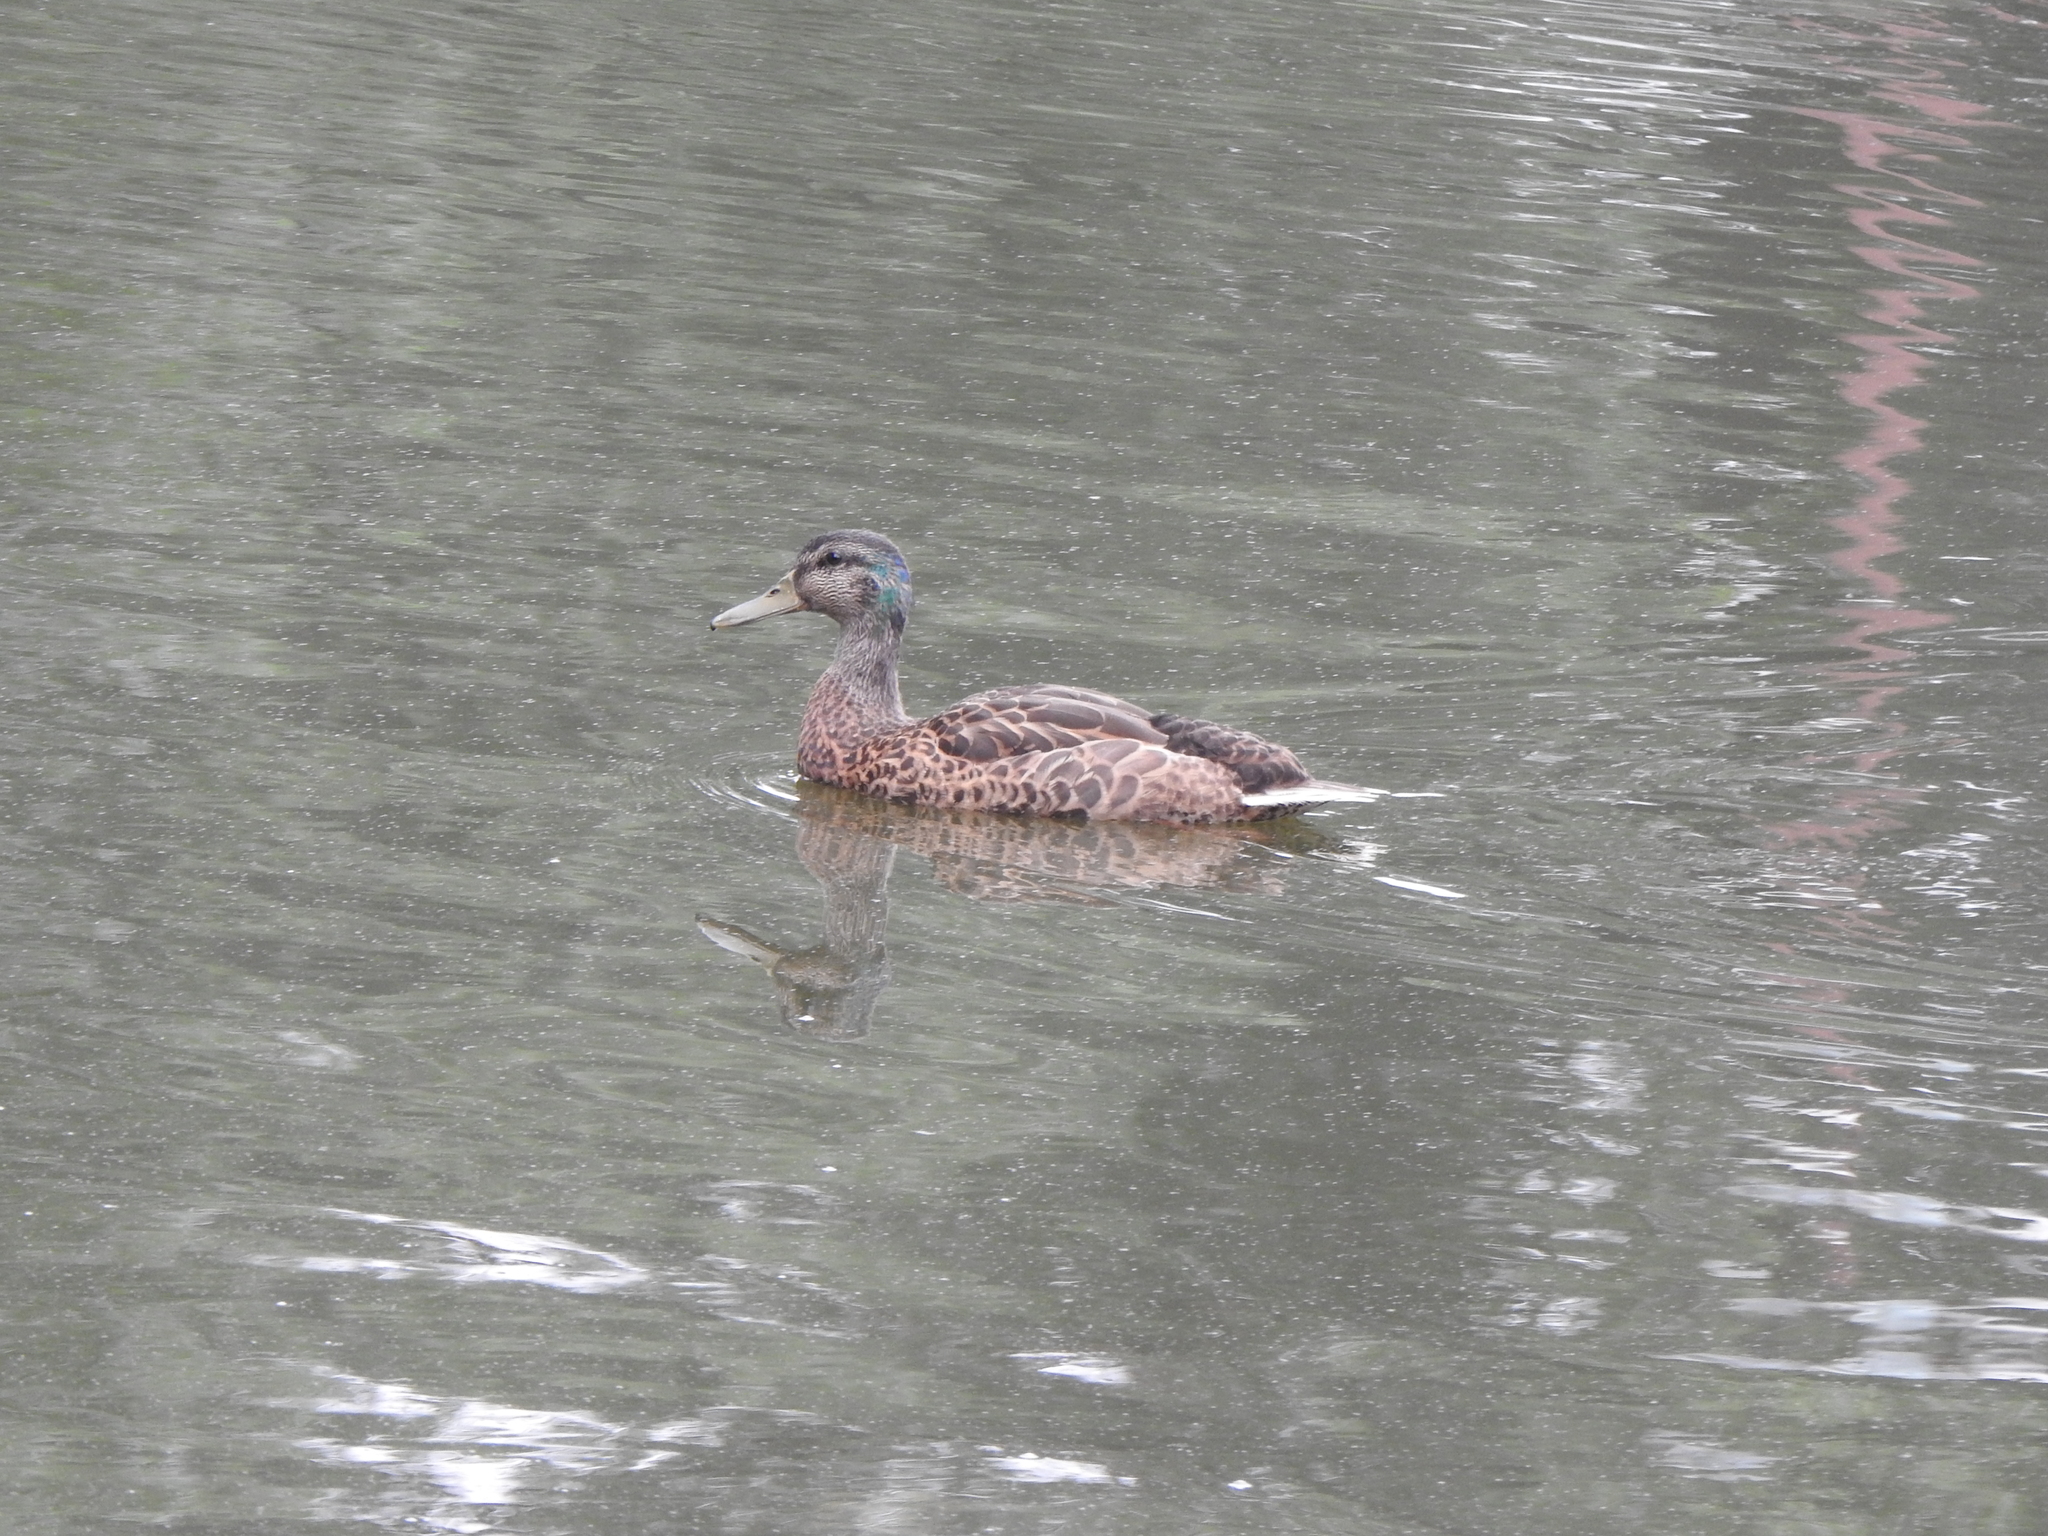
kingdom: Animalia
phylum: Chordata
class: Aves
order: Anseriformes
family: Anatidae
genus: Anas
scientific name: Anas platyrhynchos
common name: Mallard
